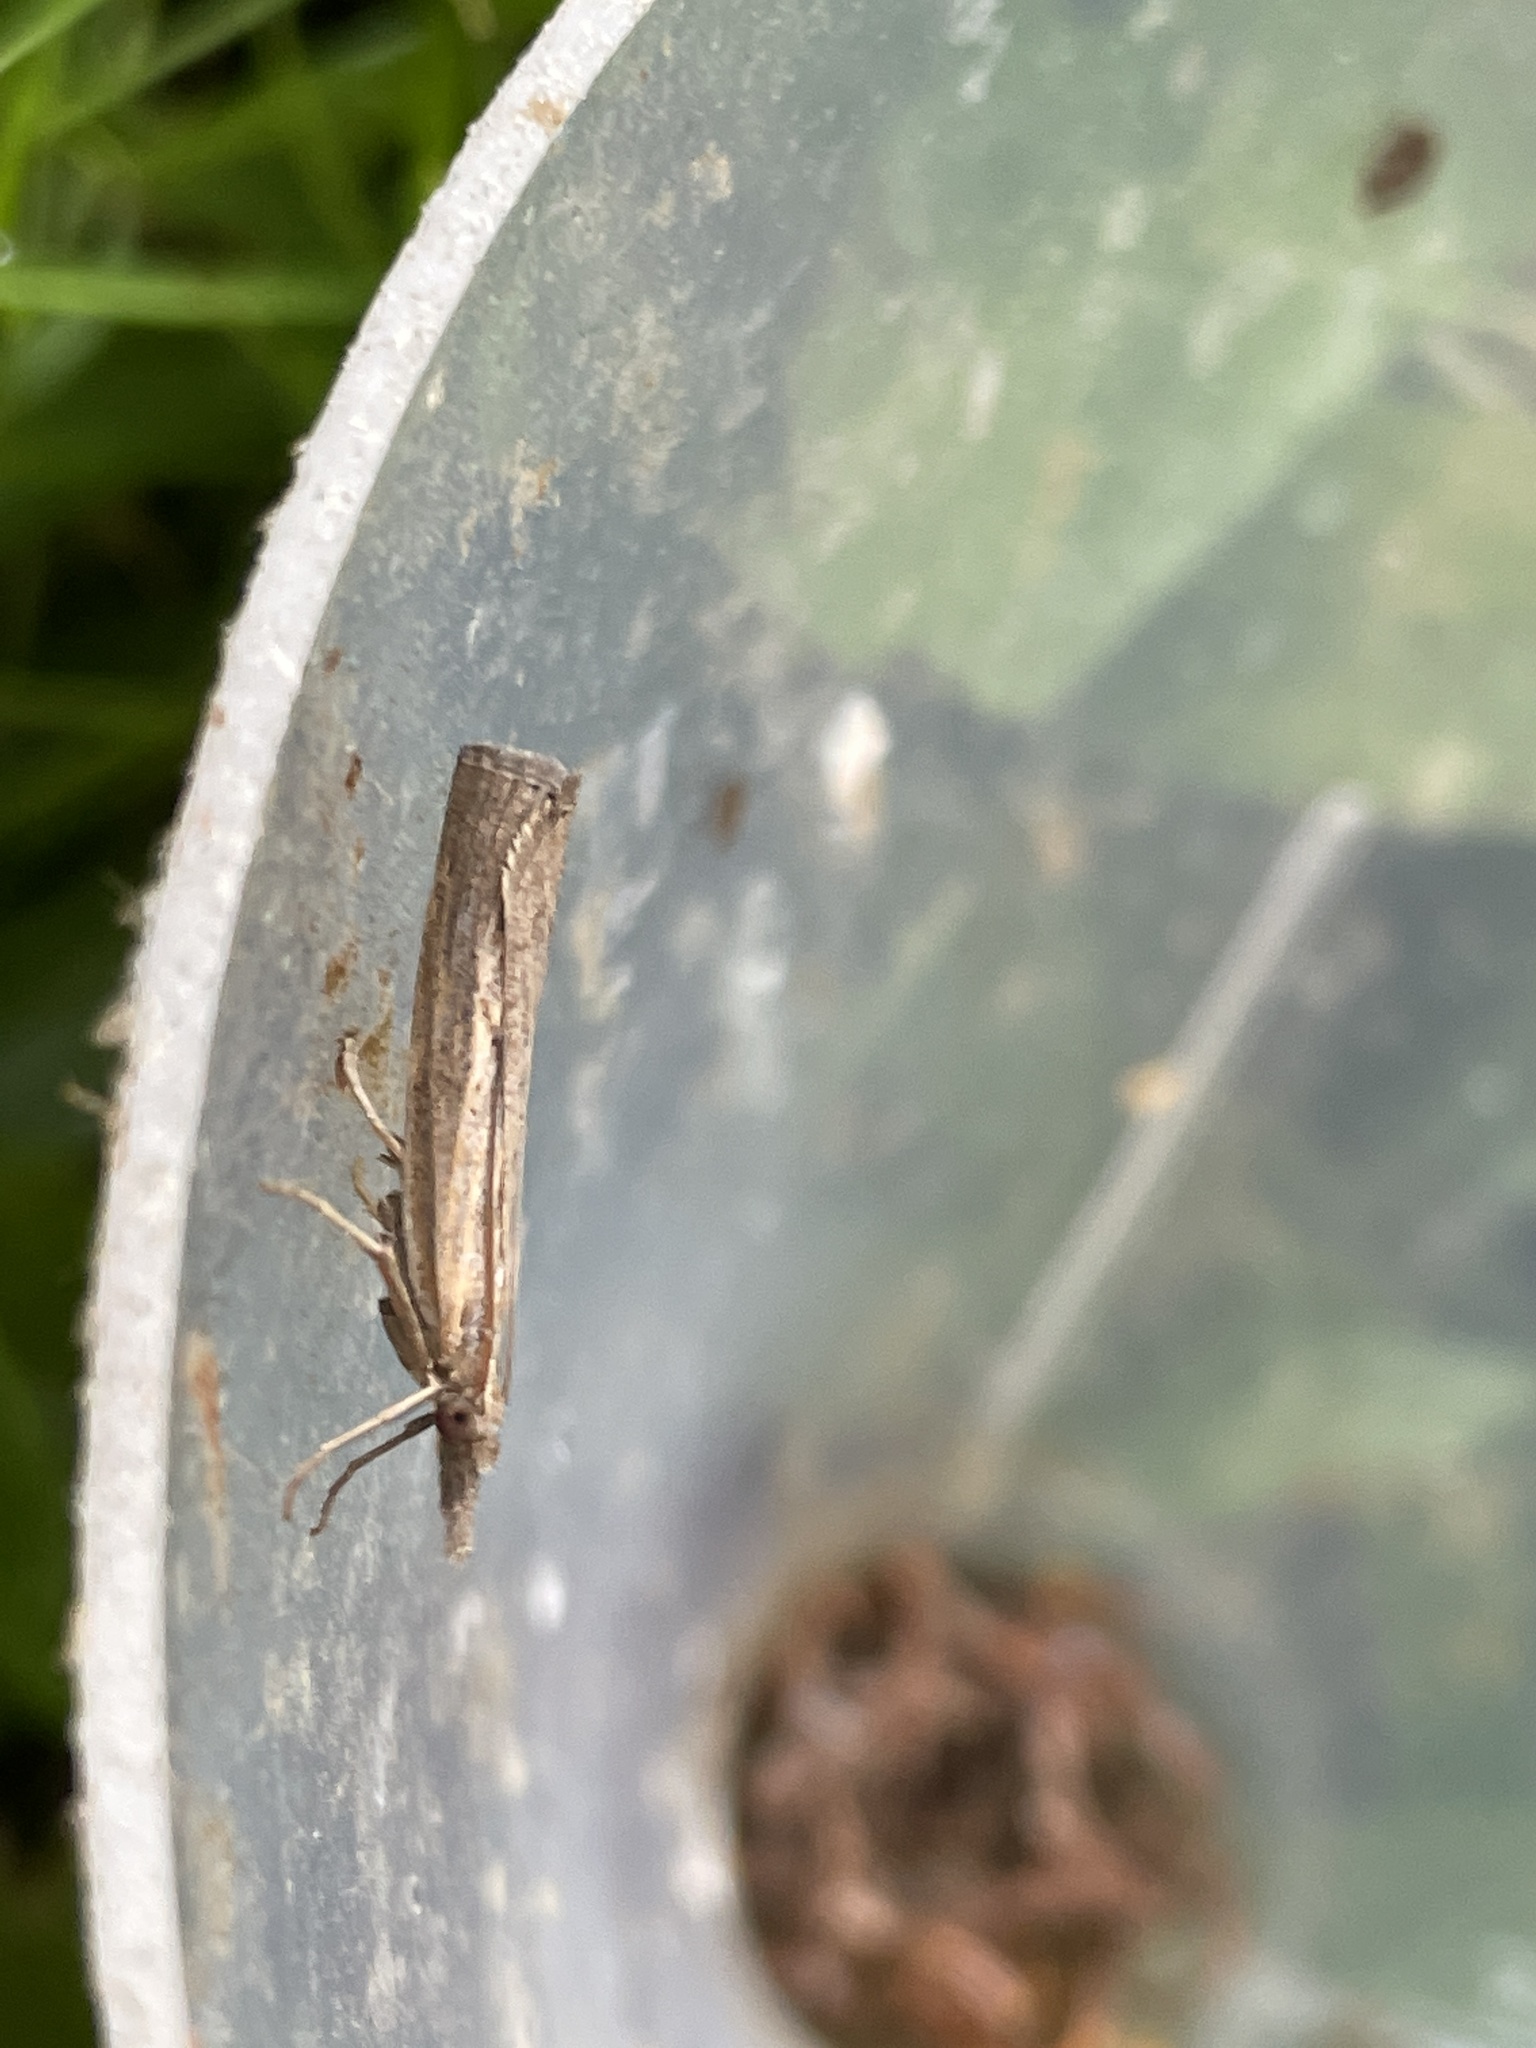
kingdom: Animalia
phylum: Arthropoda
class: Insecta
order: Lepidoptera
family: Crambidae
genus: Agriphila
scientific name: Agriphila tristellus
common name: Common grass-veneer
